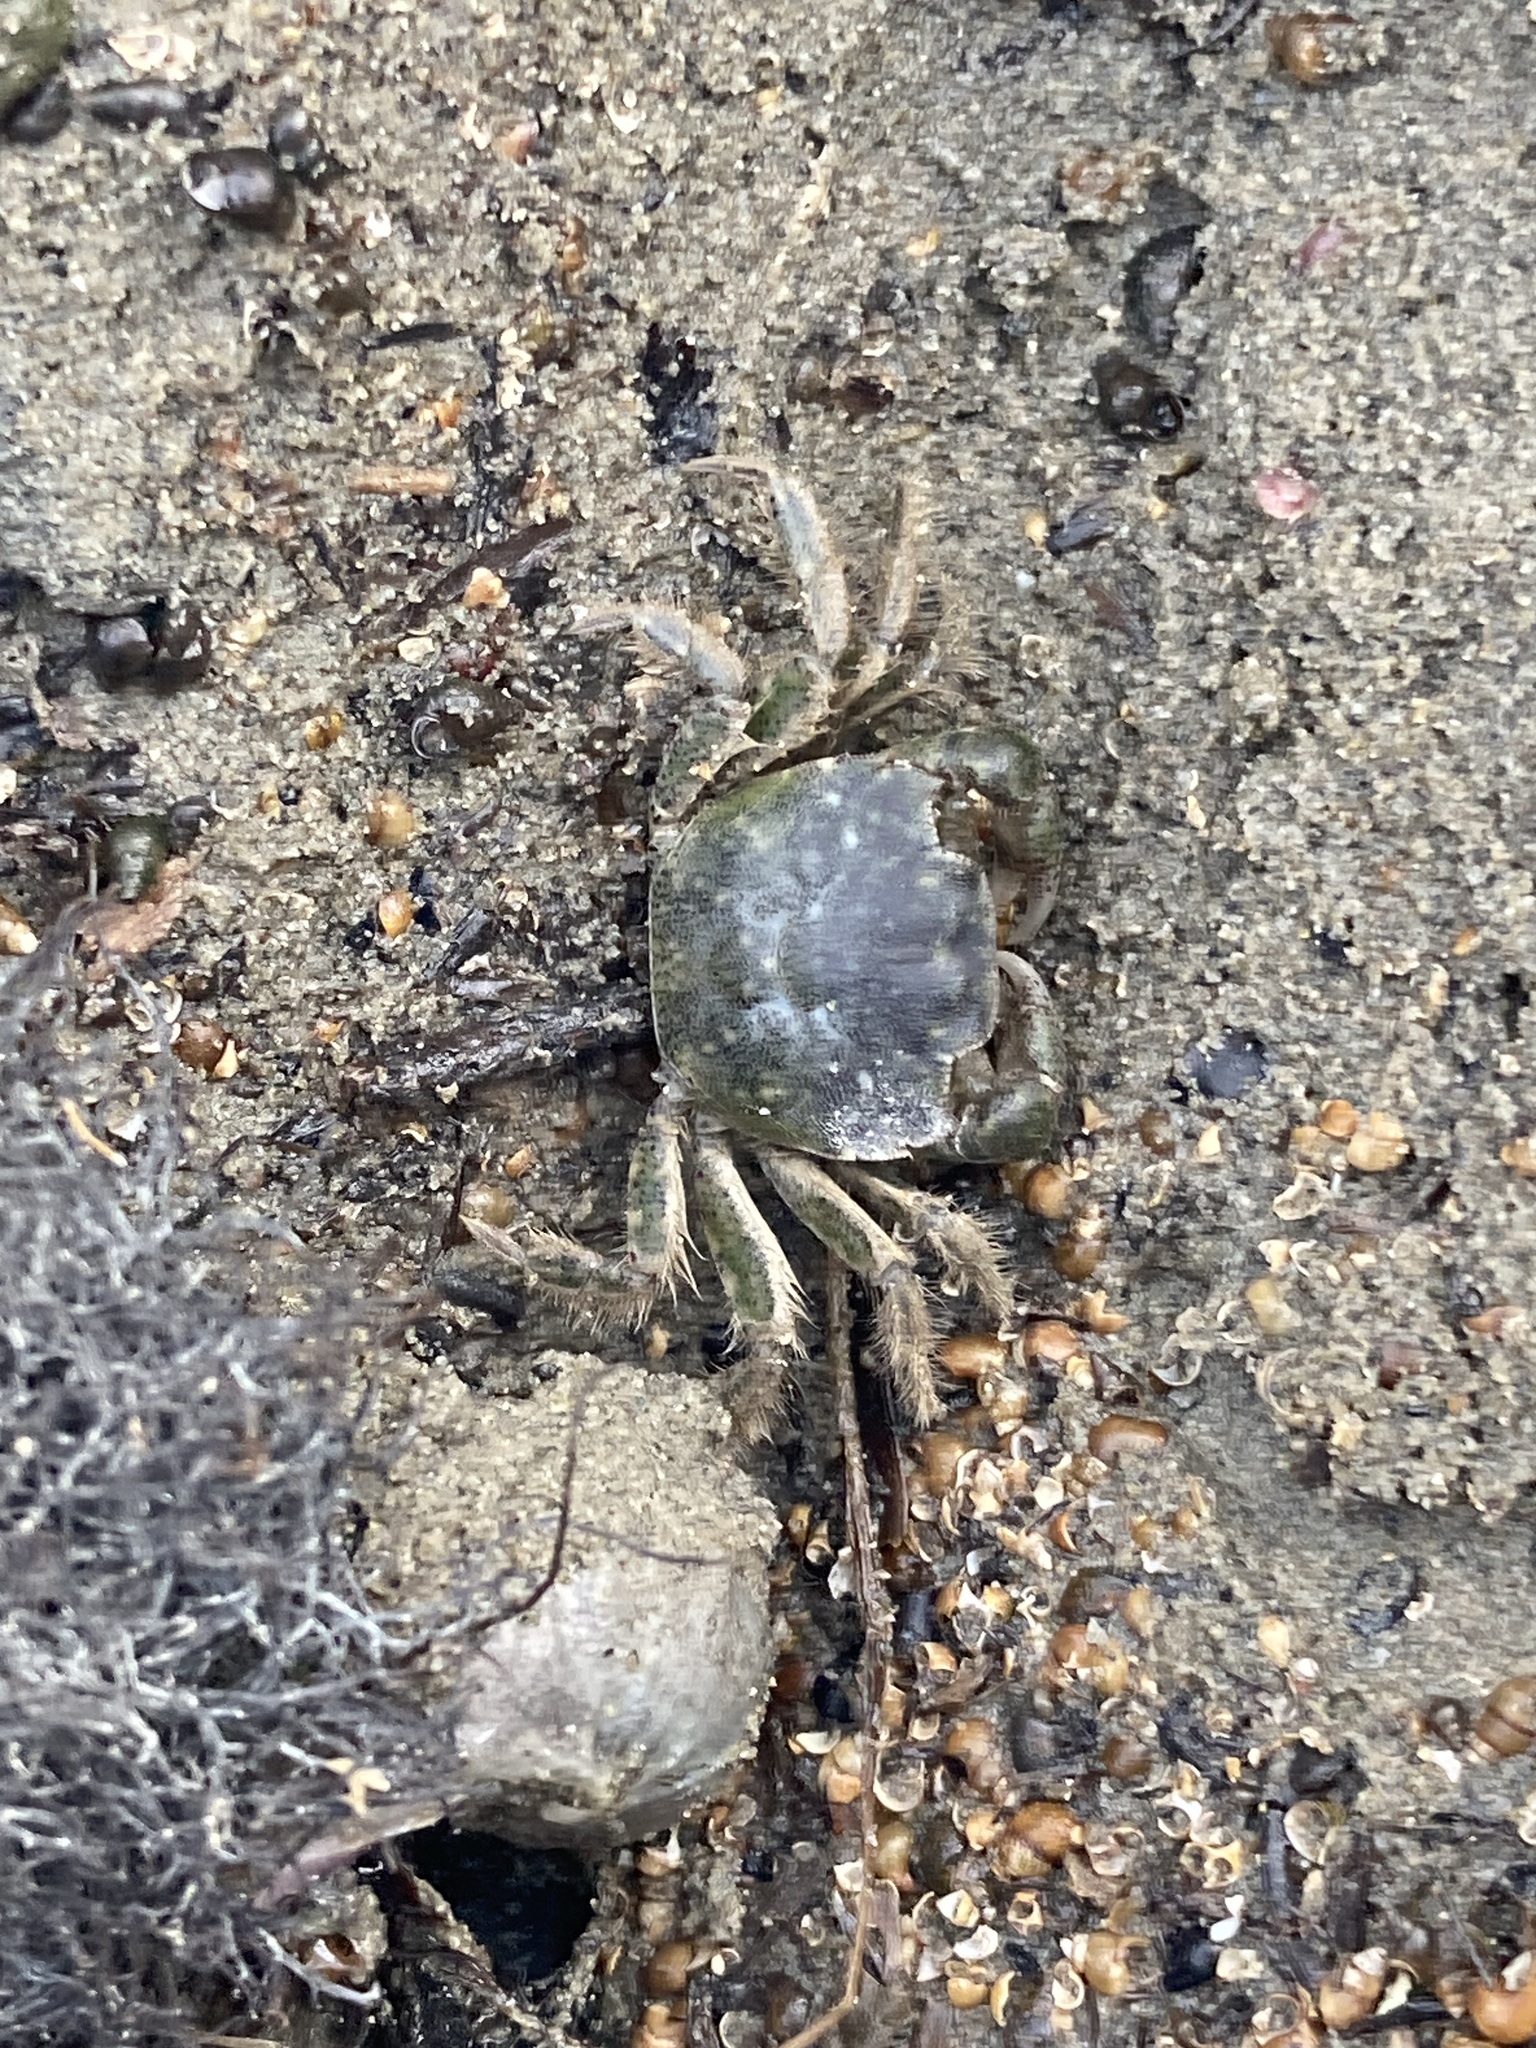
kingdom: Animalia
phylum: Arthropoda
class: Malacostraca
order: Decapoda
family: Varunidae
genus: Hemigrapsus
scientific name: Hemigrapsus crenulatus
